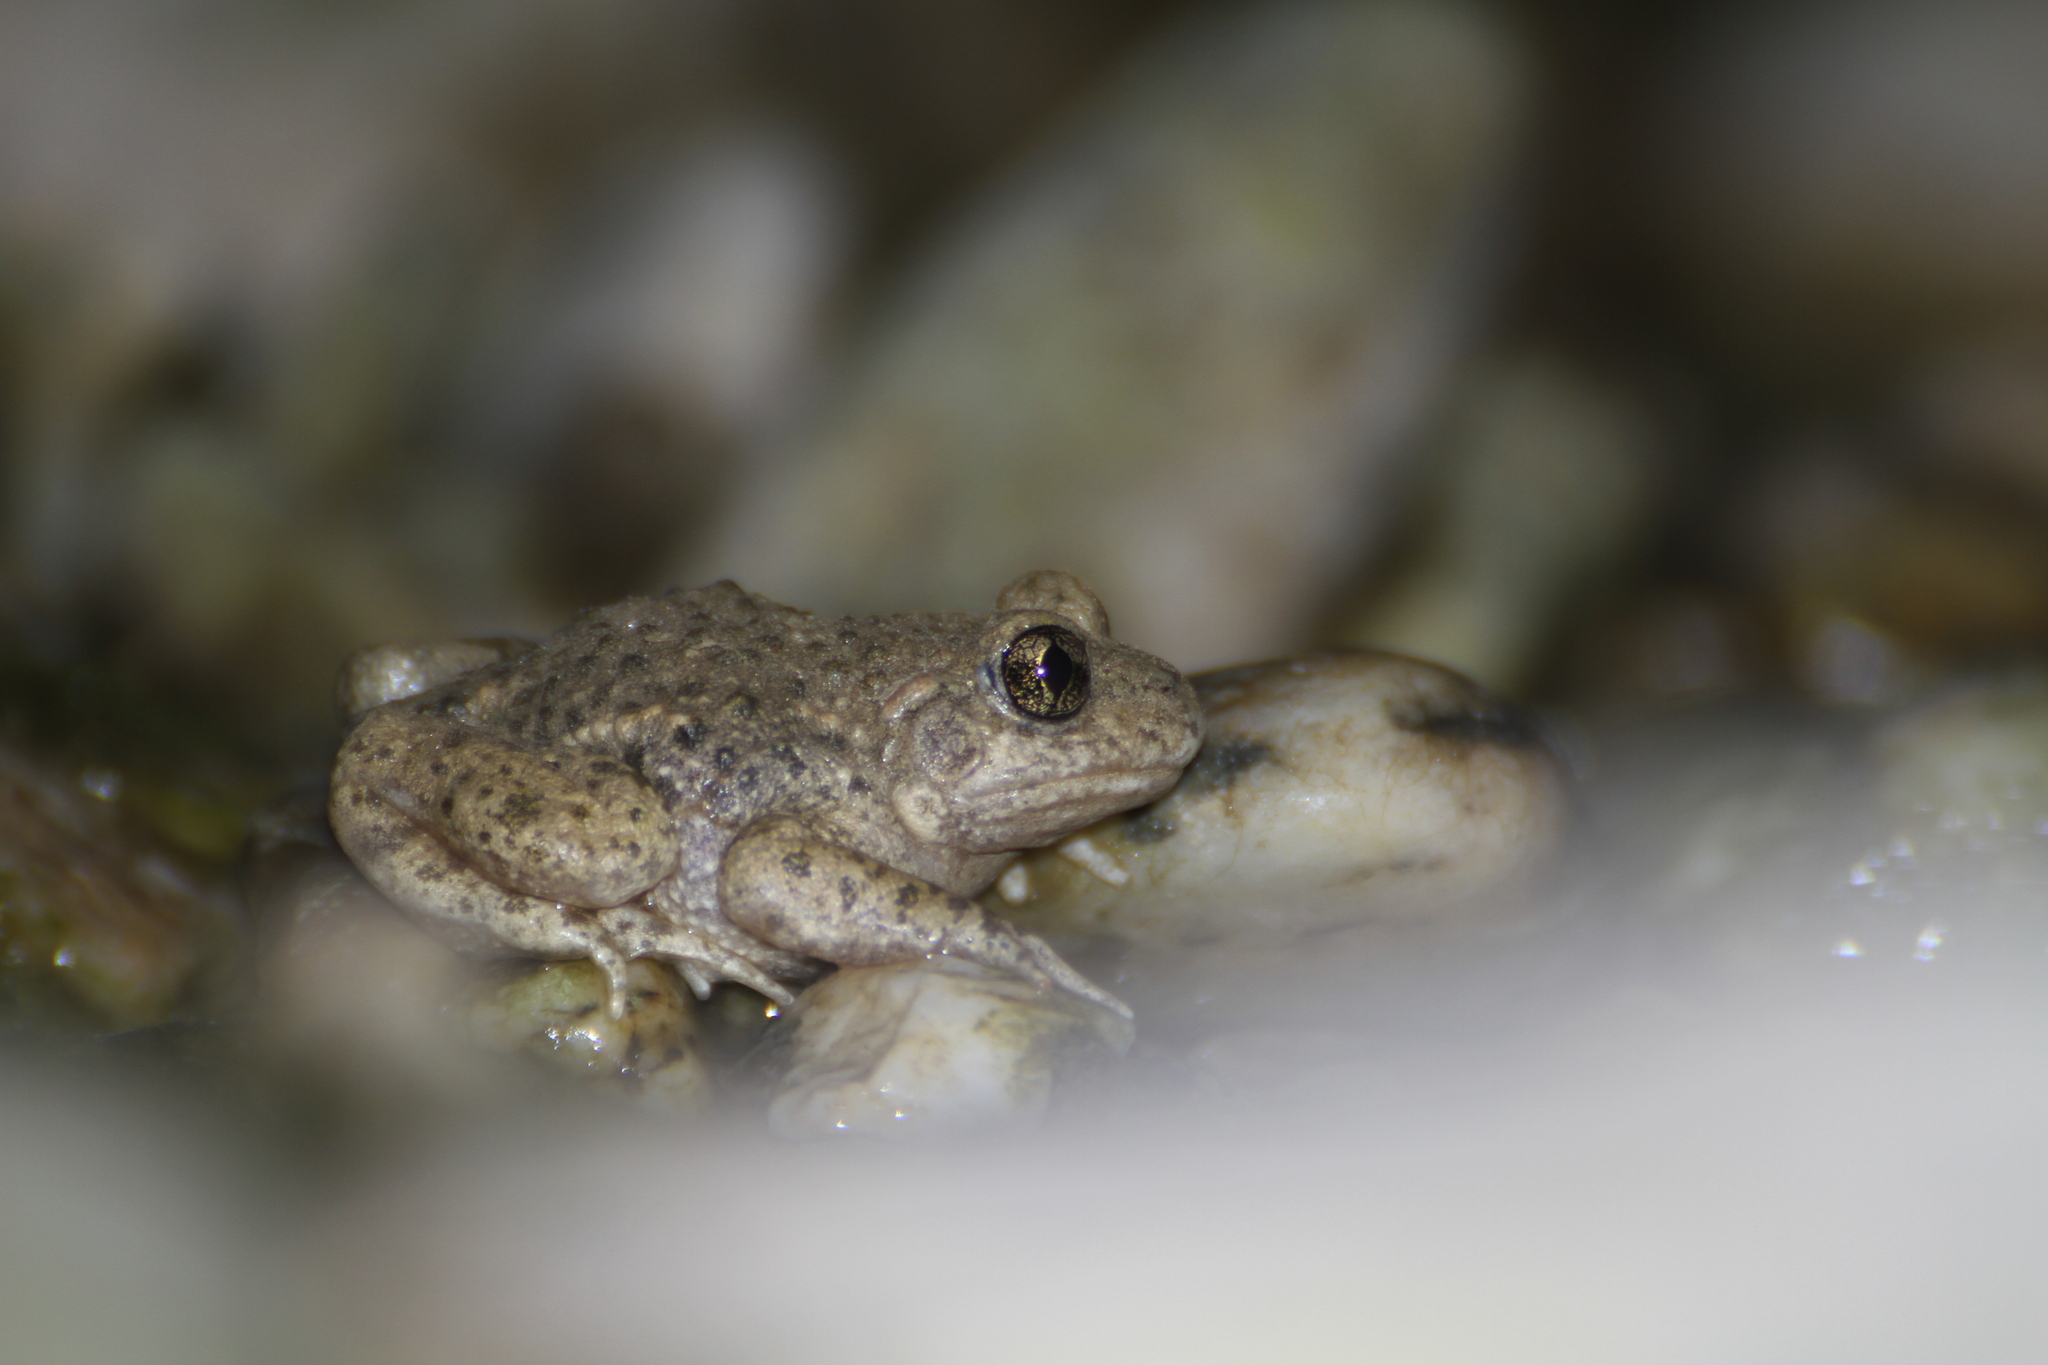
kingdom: Animalia
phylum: Chordata
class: Amphibia
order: Anura
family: Alytidae
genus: Alytes
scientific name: Alytes obstetricans
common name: Midwife toad
